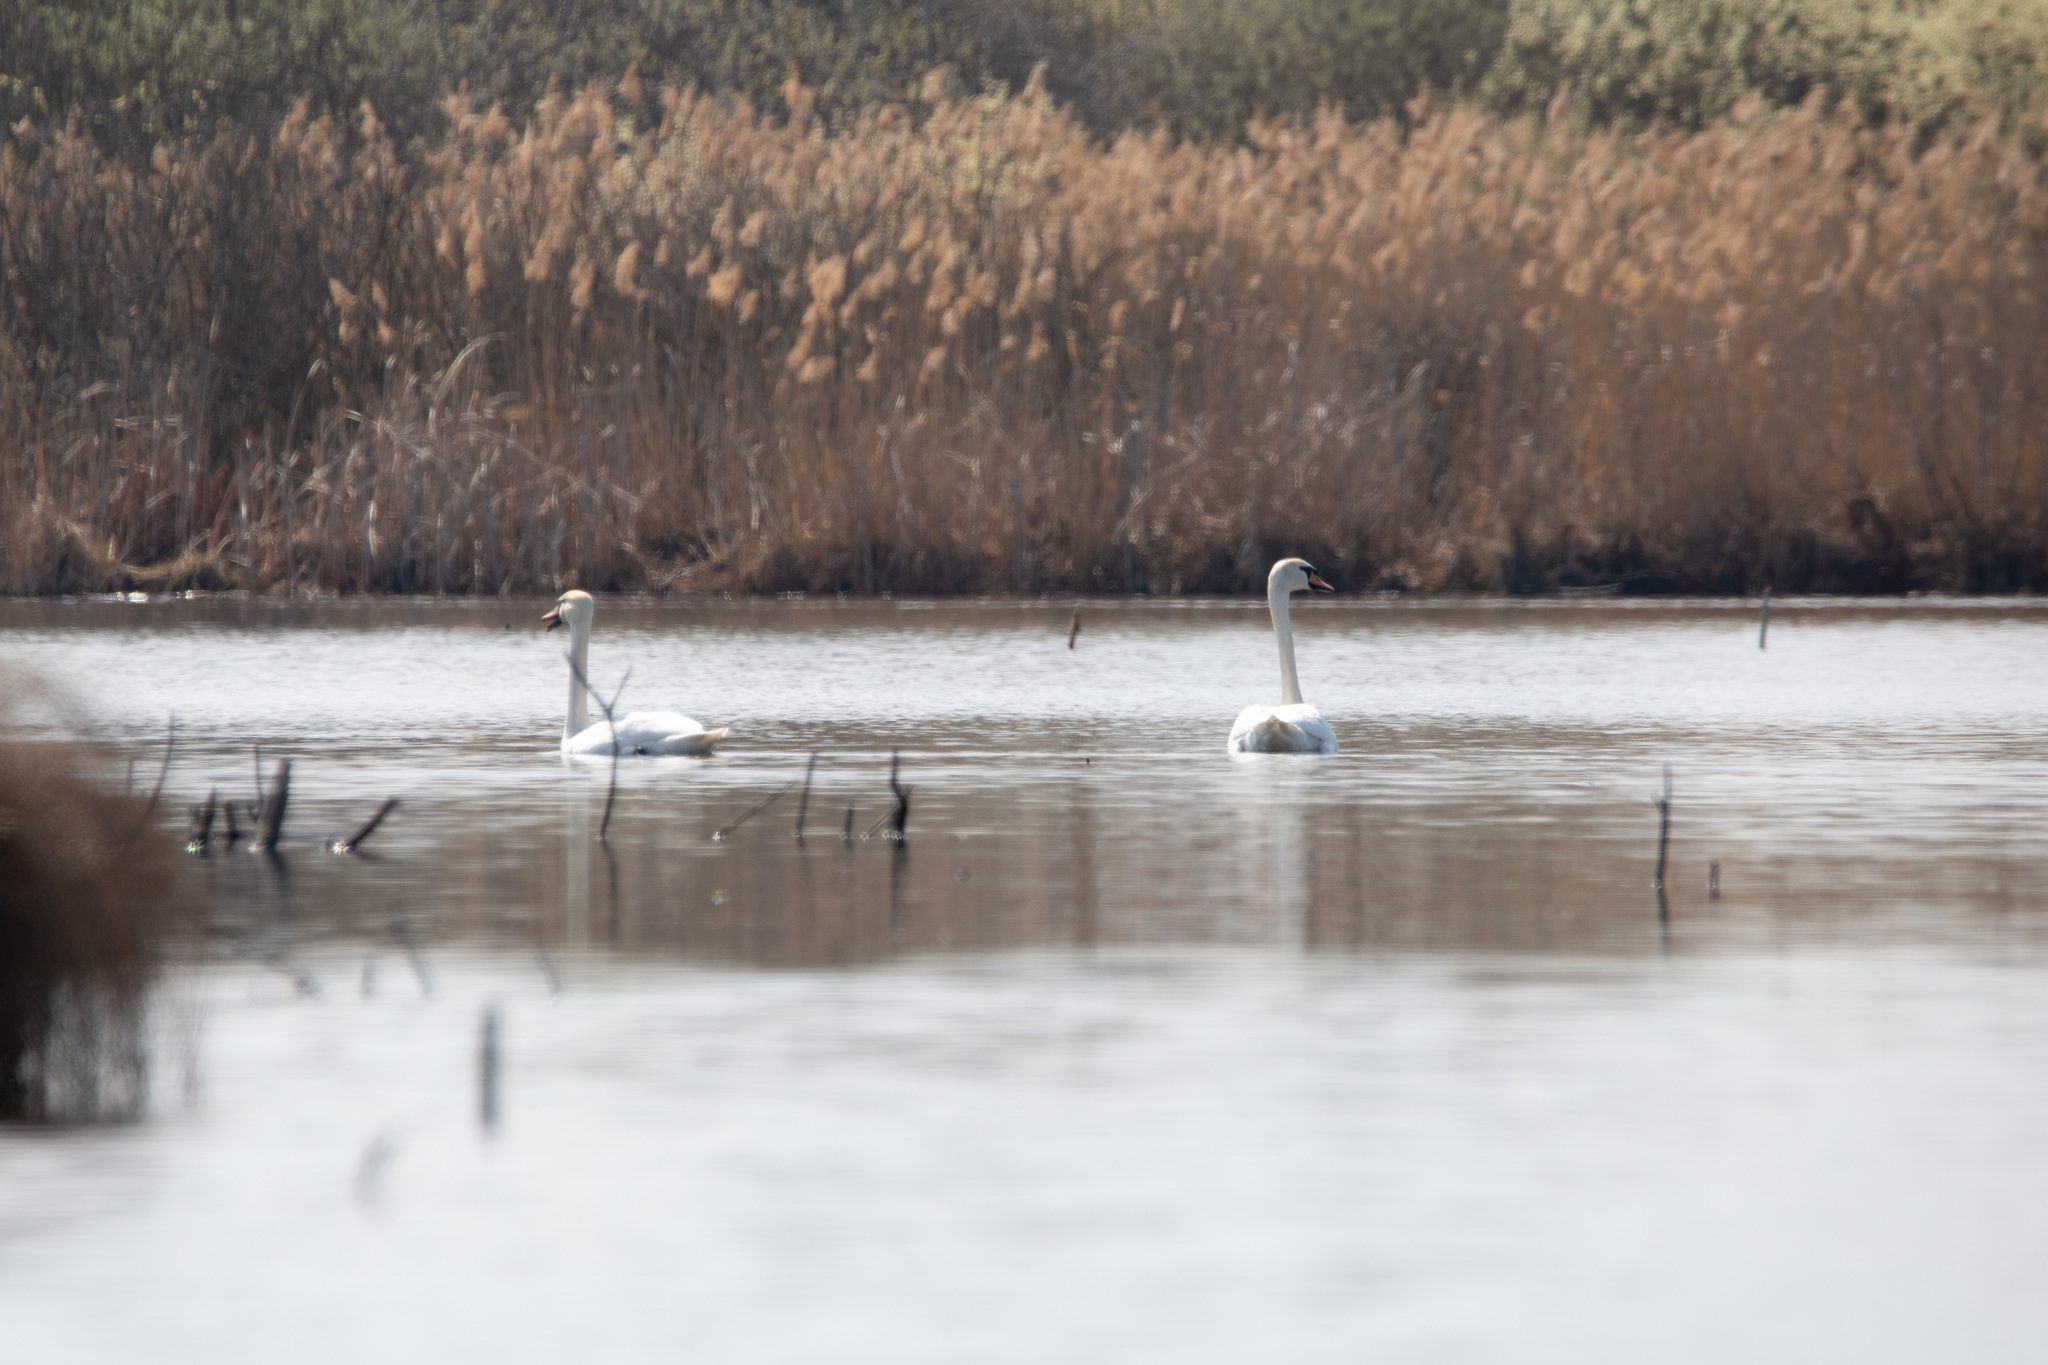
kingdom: Animalia
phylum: Chordata
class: Aves
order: Anseriformes
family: Anatidae
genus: Cygnus
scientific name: Cygnus olor
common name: Mute swan
